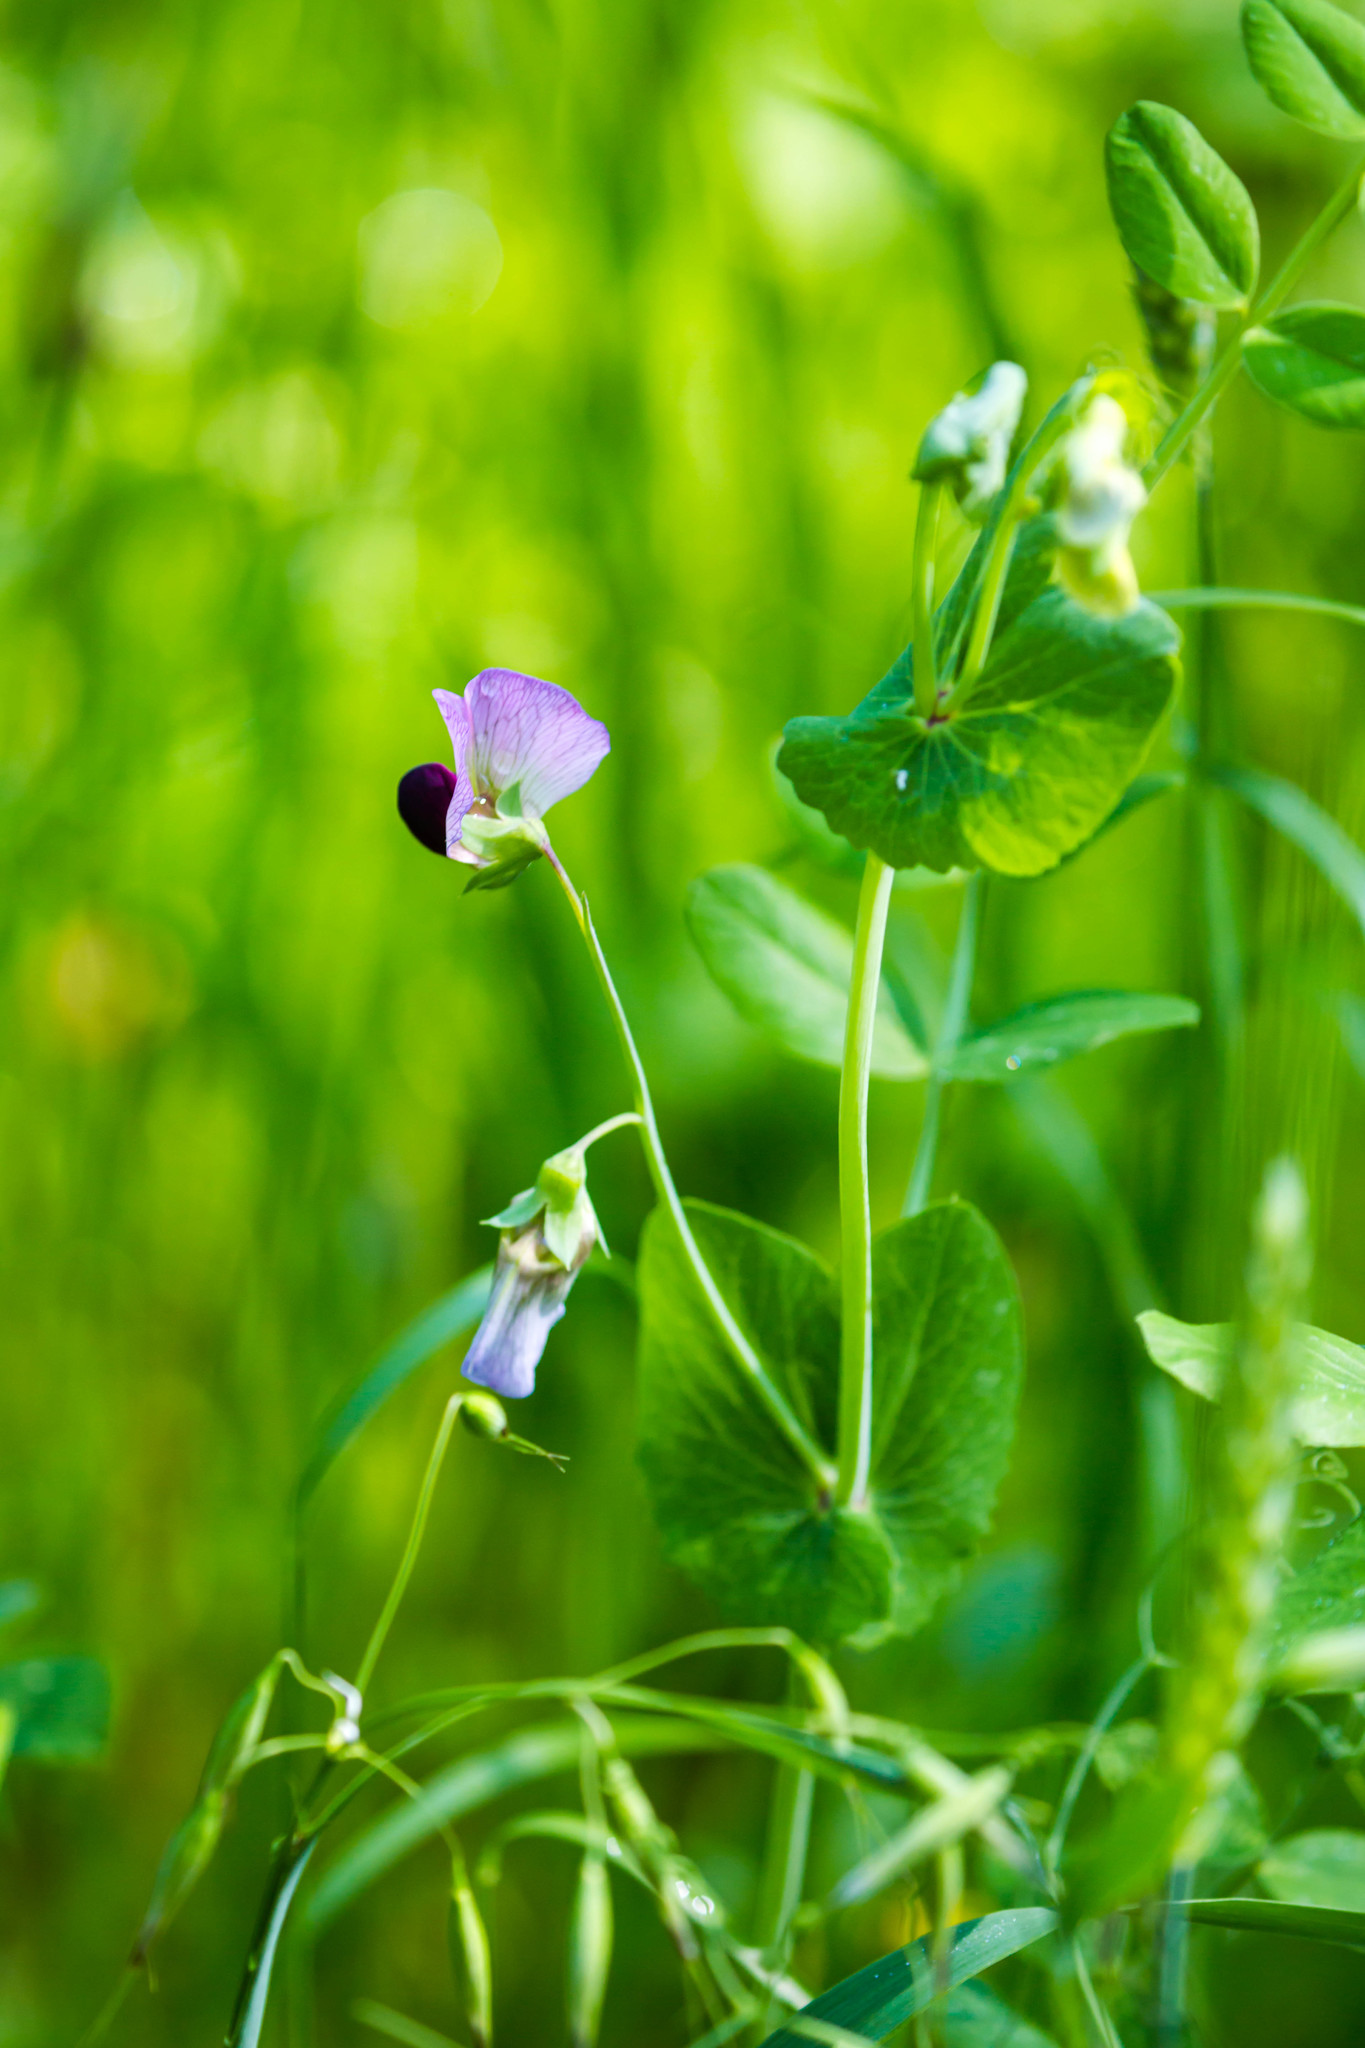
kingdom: Plantae
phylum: Tracheophyta
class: Magnoliopsida
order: Fabales
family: Fabaceae
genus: Lathyrus
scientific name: Lathyrus oleraceus
